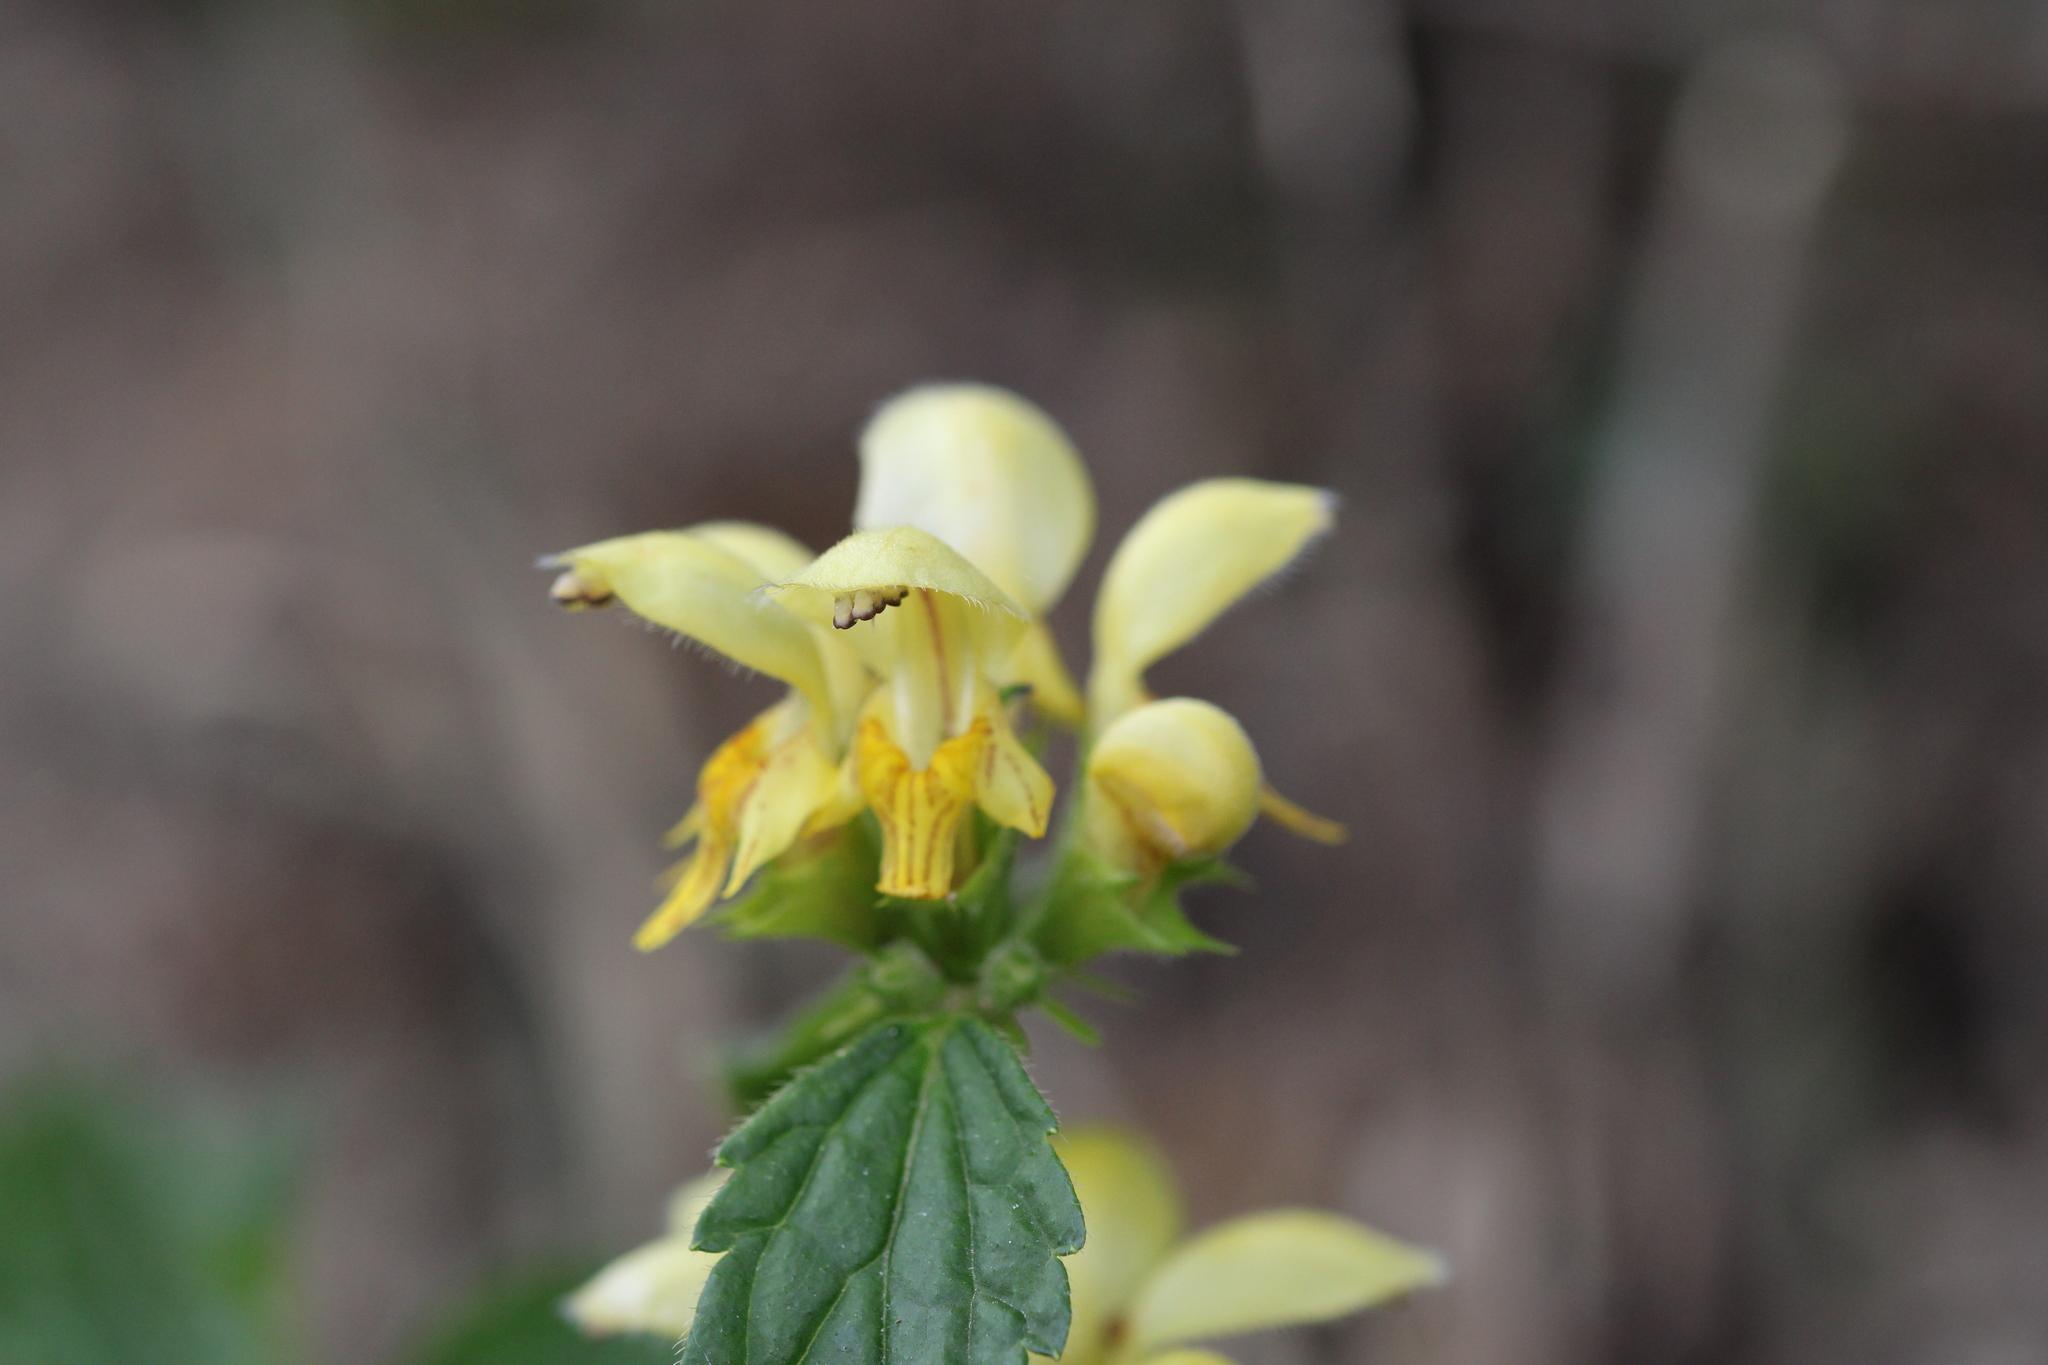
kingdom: Plantae
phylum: Tracheophyta
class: Magnoliopsida
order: Lamiales
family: Lamiaceae
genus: Lamium
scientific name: Lamium galeobdolon
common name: Yellow archangel
